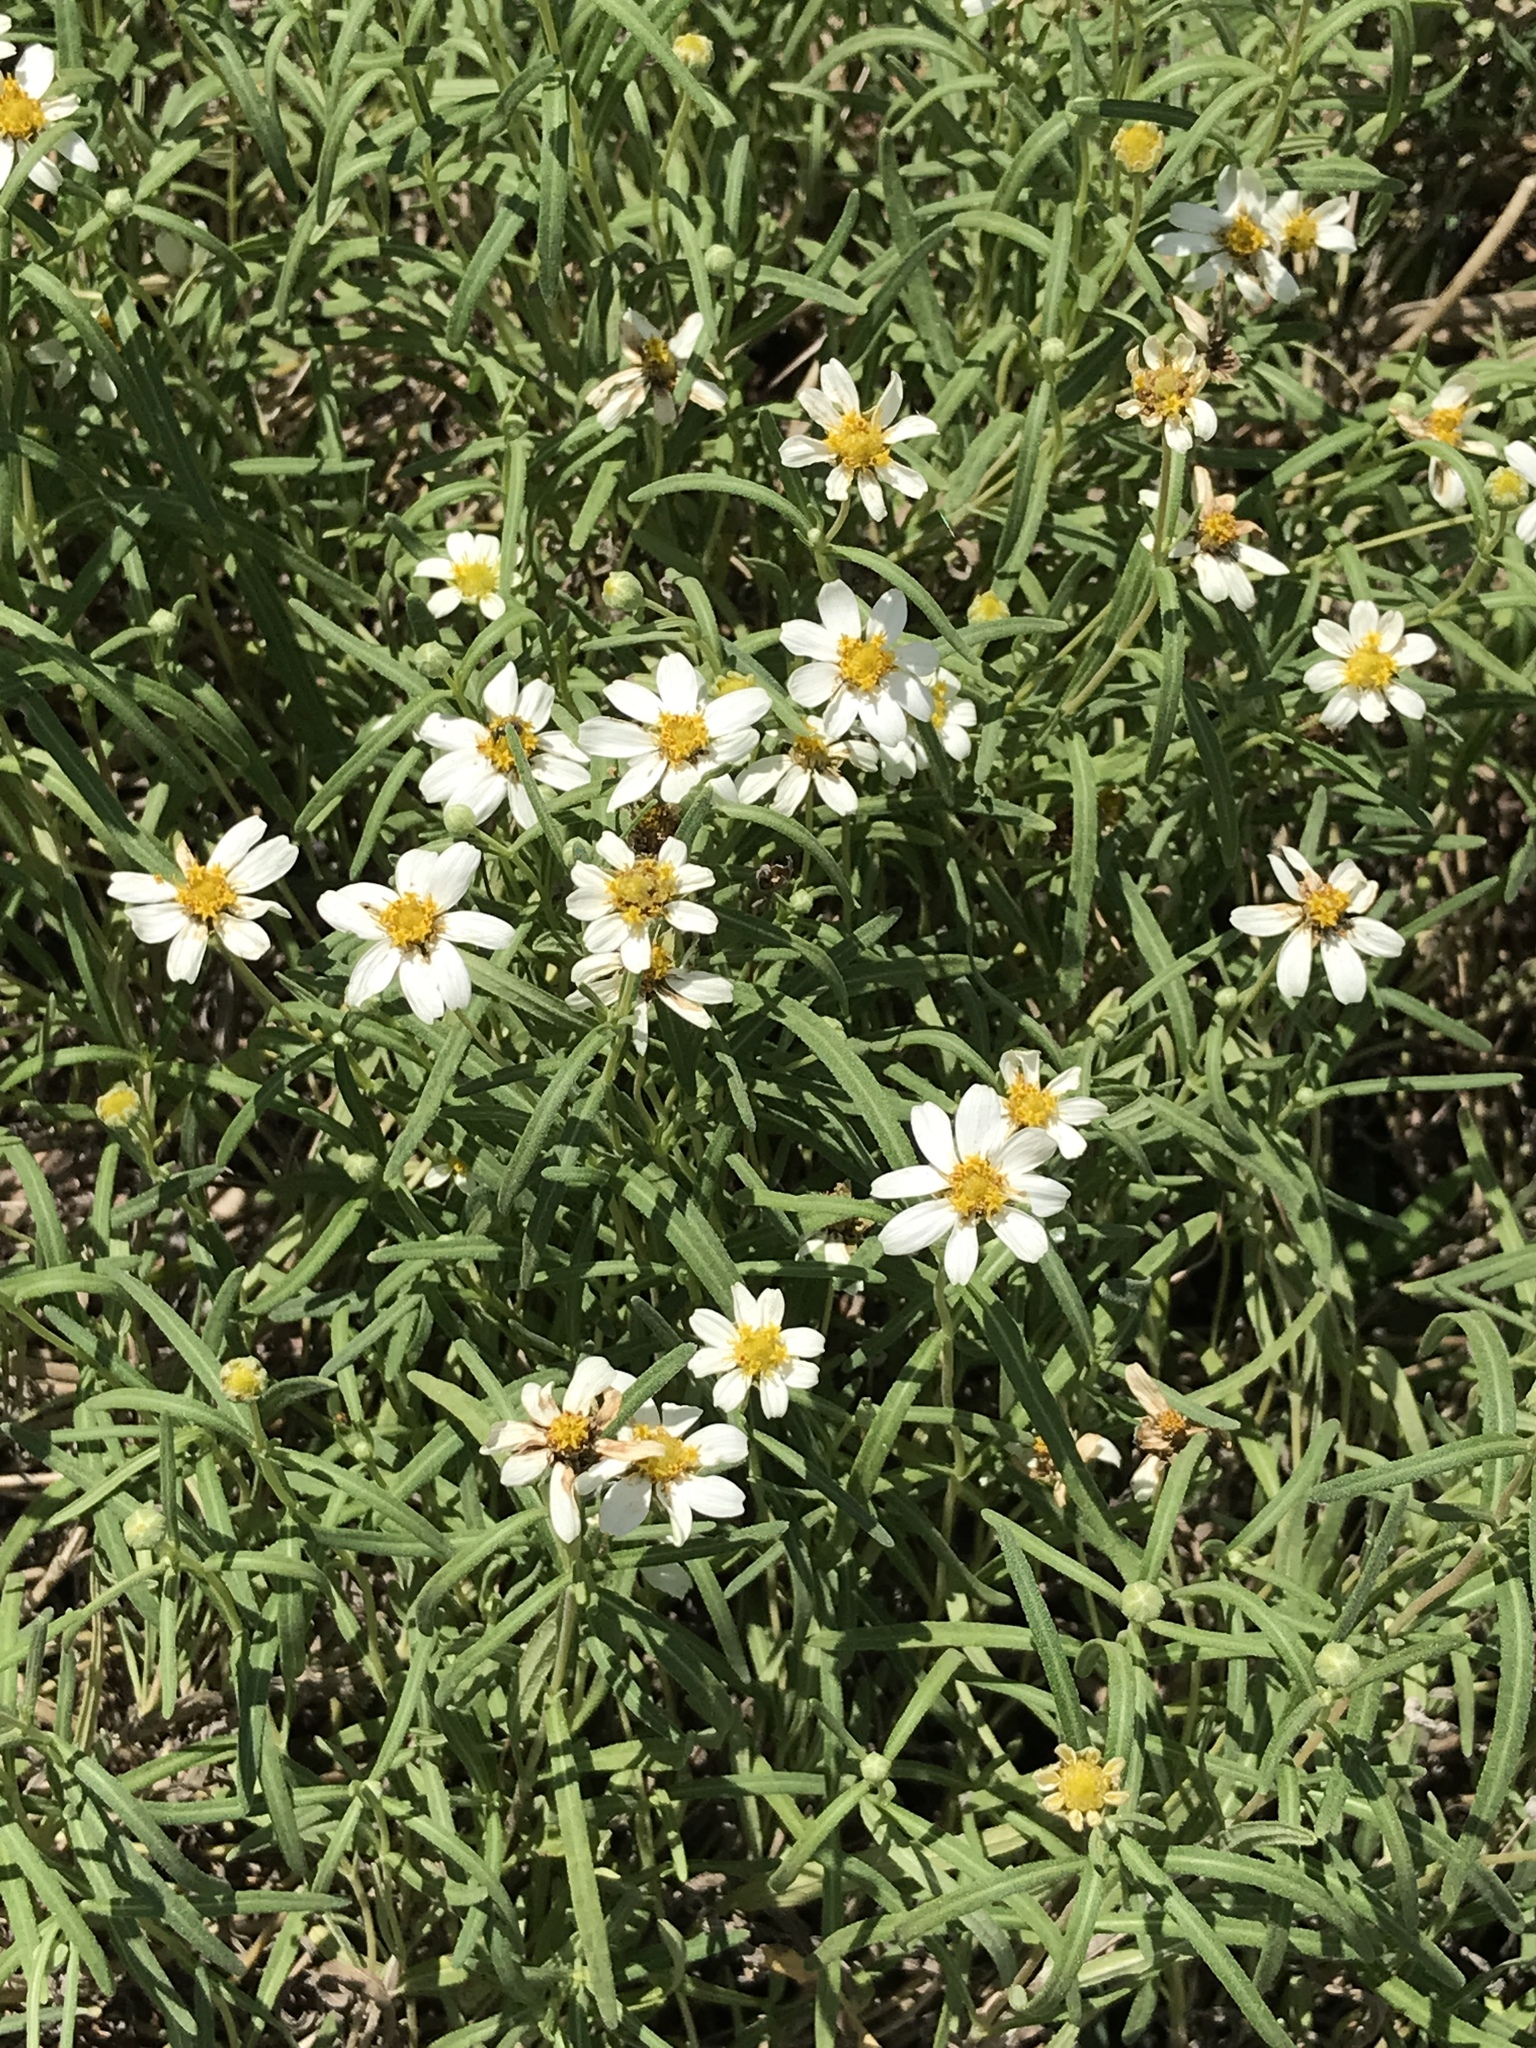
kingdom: Plantae
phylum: Tracheophyta
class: Magnoliopsida
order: Asterales
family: Asteraceae
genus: Melampodium
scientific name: Melampodium leucanthum
